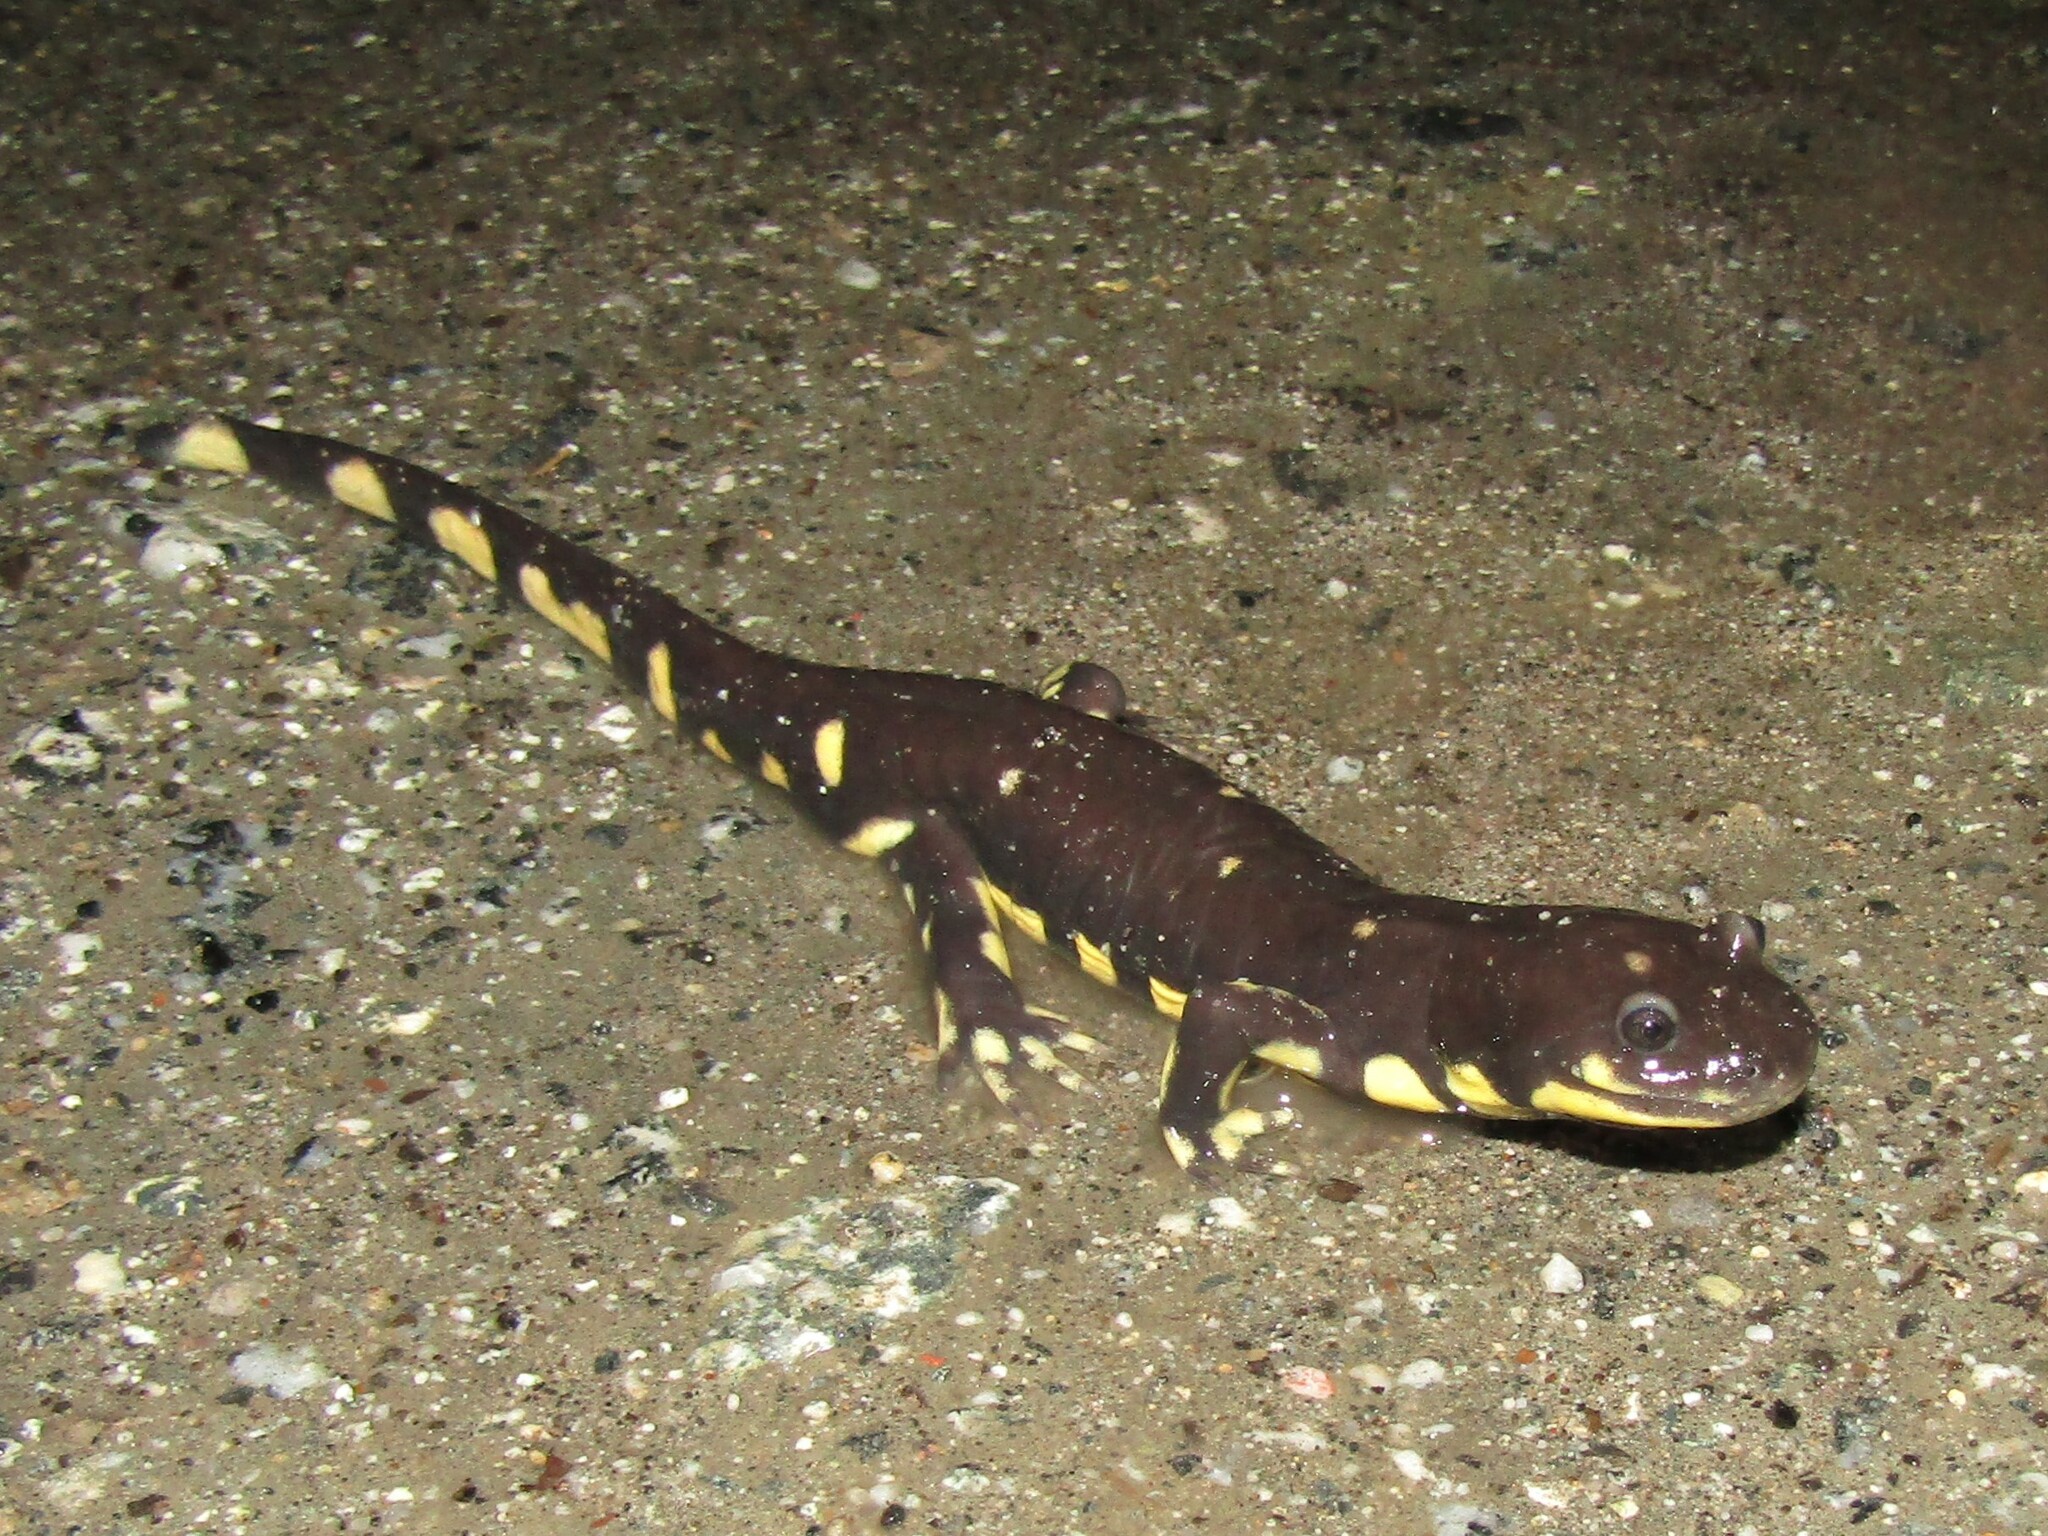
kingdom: Animalia
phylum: Chordata
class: Amphibia
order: Caudata
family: Ambystomatidae
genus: Ambystoma
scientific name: Ambystoma californiense
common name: California tiger salamander
